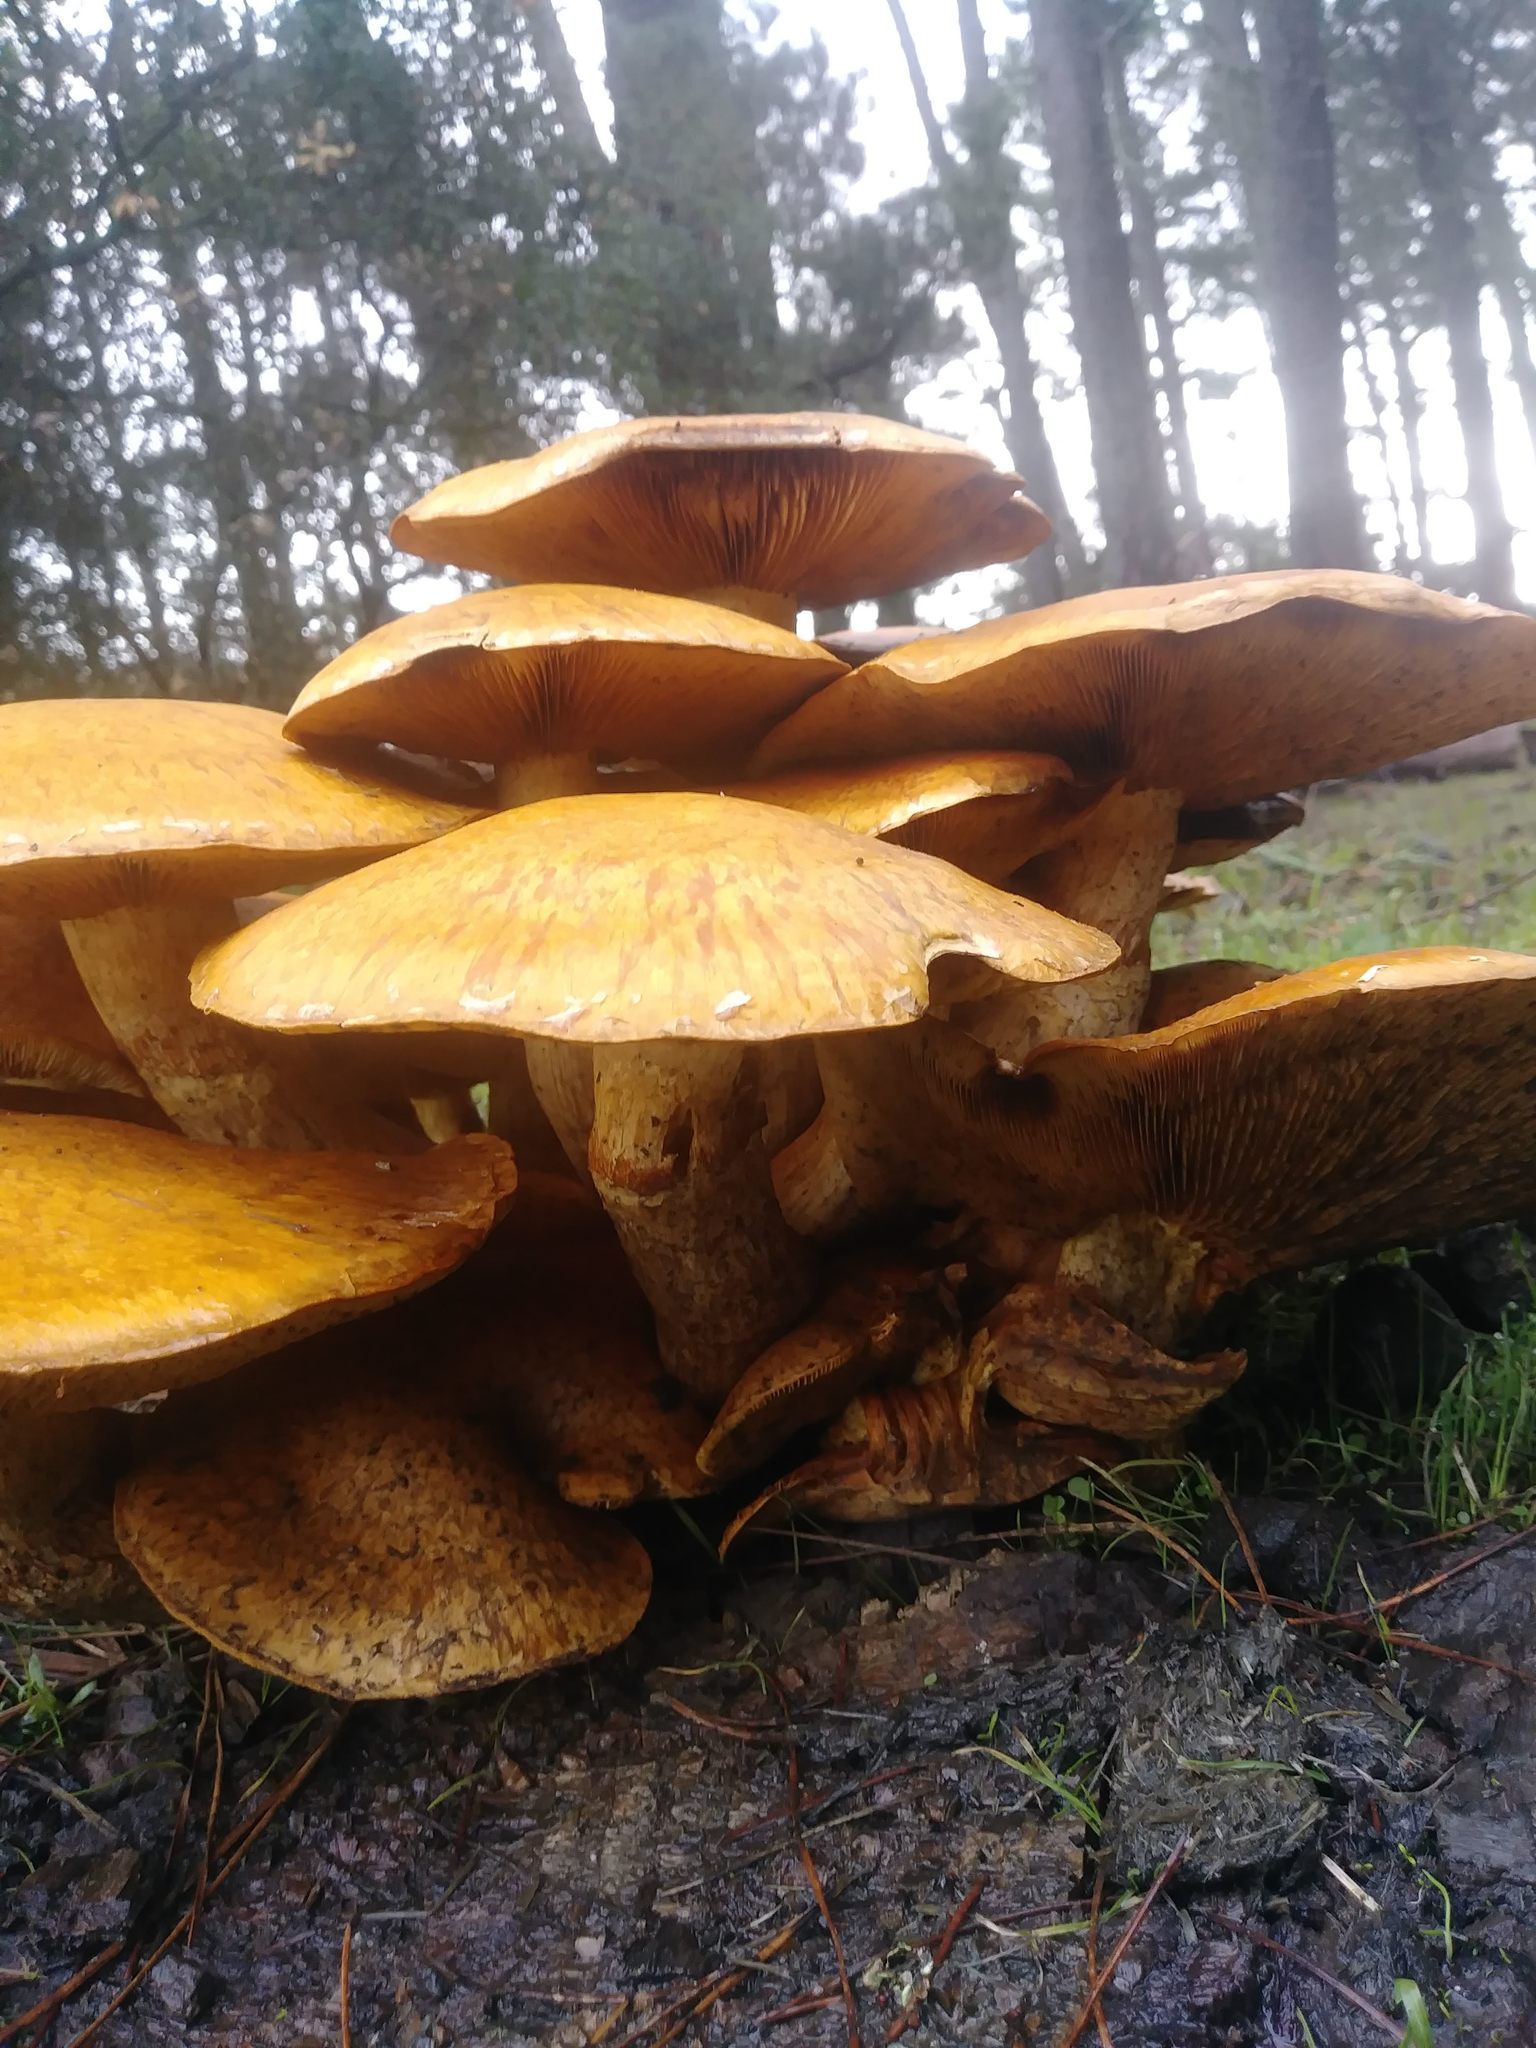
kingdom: Fungi
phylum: Basidiomycota
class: Agaricomycetes
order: Agaricales
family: Hymenogastraceae
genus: Gymnopilus
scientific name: Gymnopilus ventricosus
